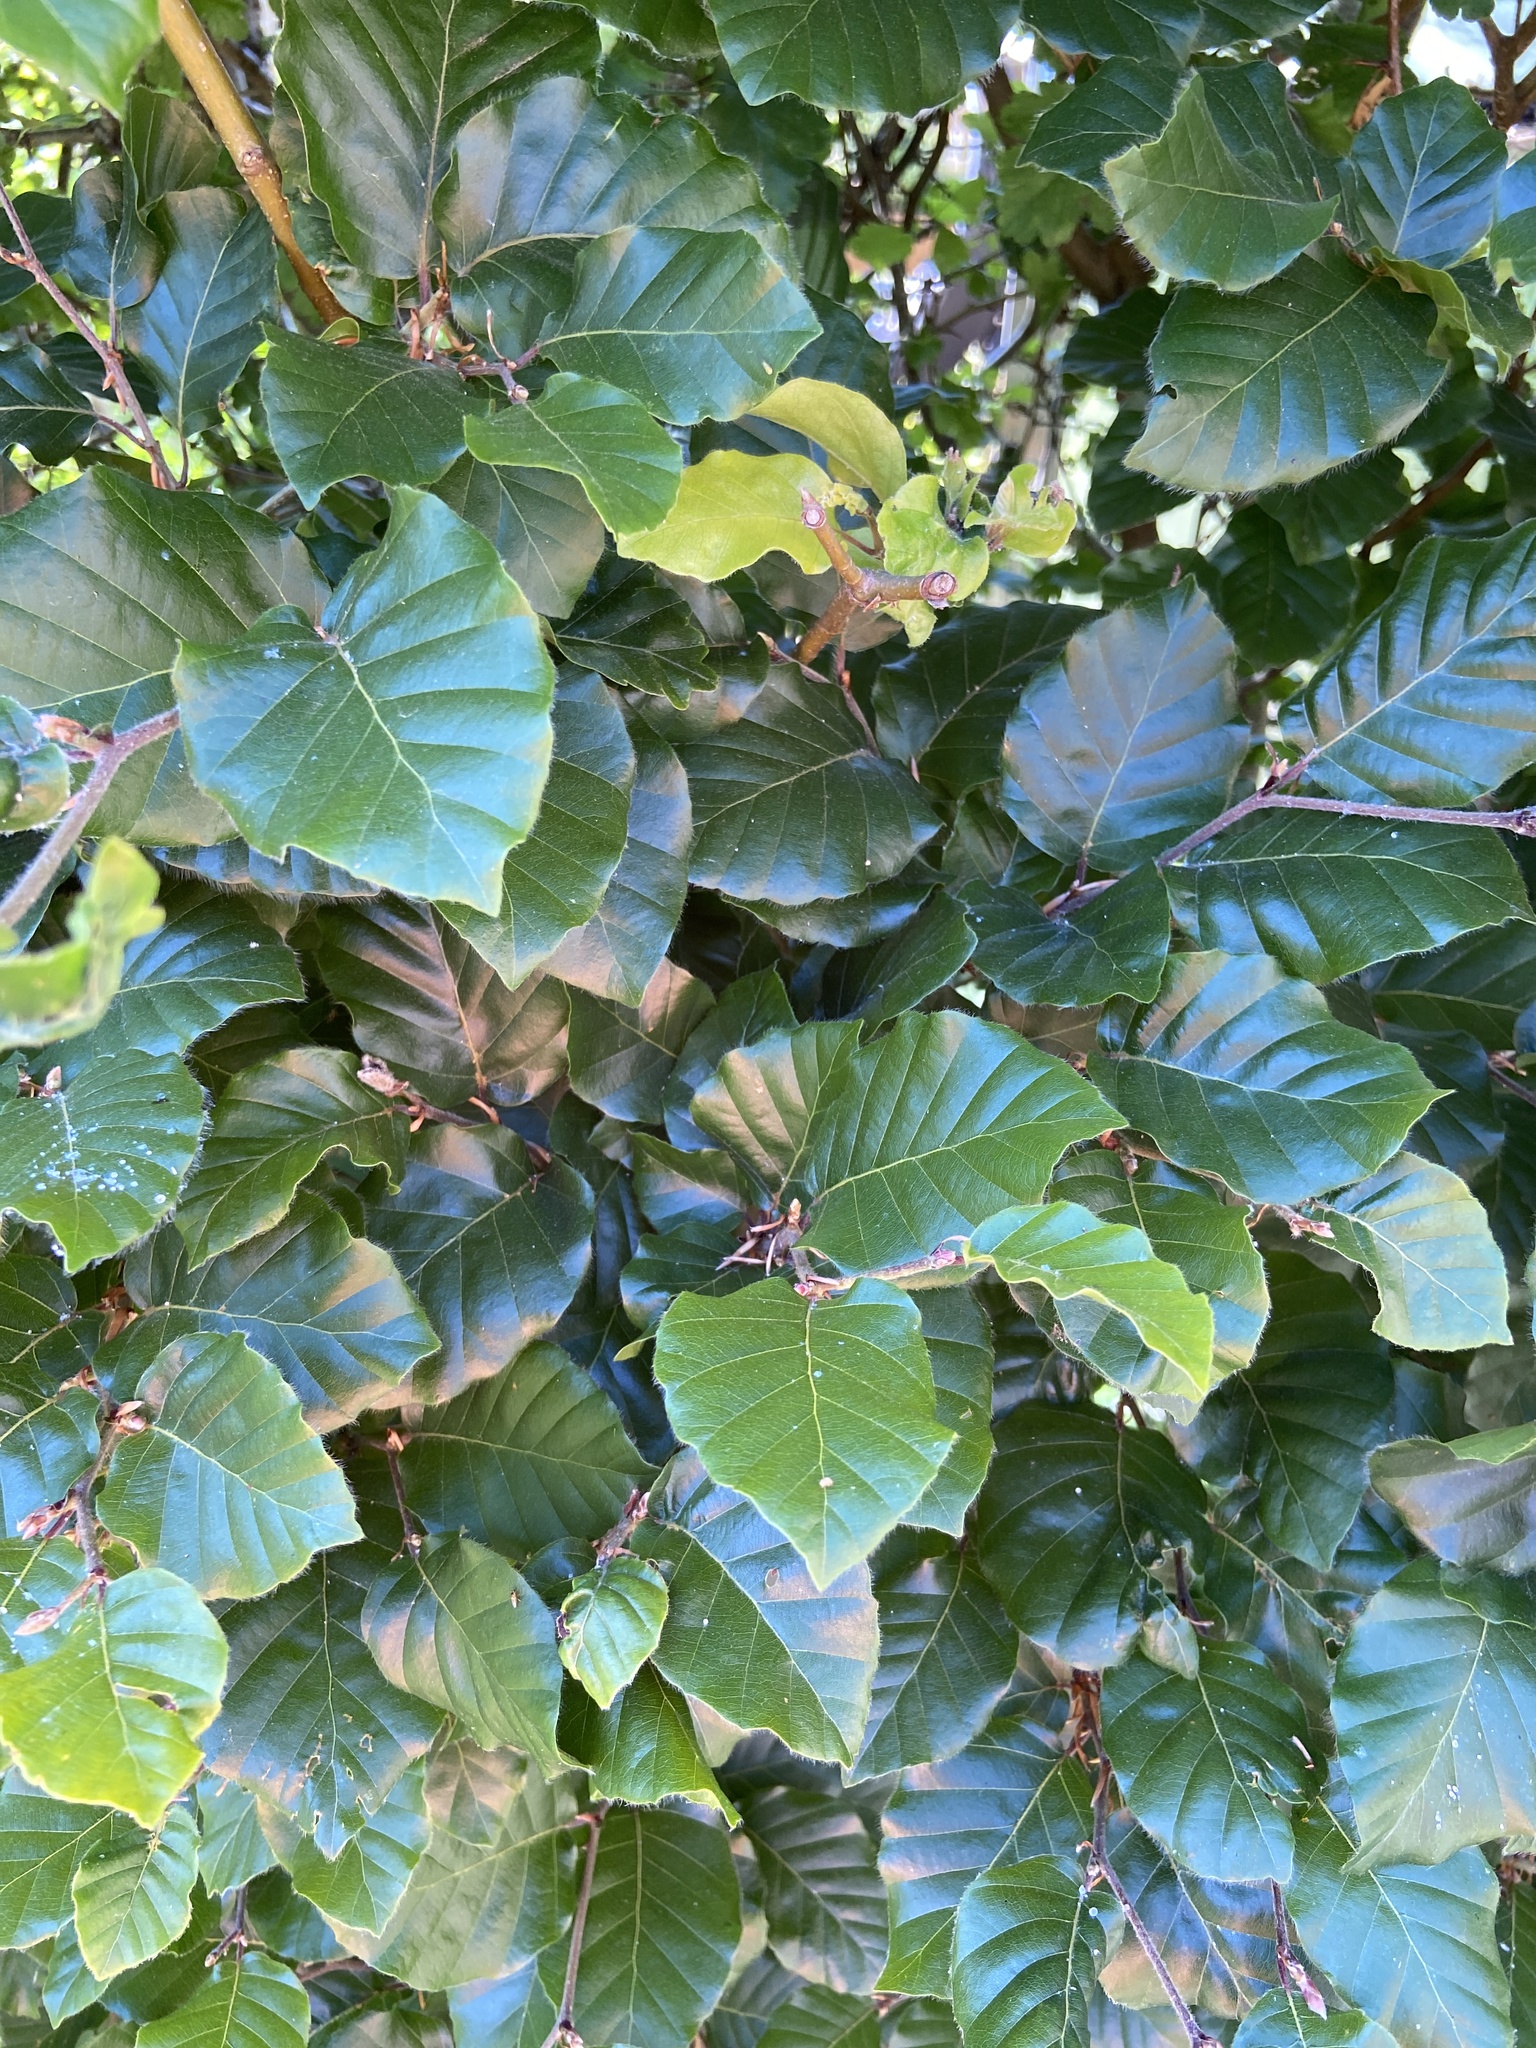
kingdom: Plantae
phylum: Tracheophyta
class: Magnoliopsida
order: Fagales
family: Fagaceae
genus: Fagus
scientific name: Fagus sylvatica
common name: Beech
